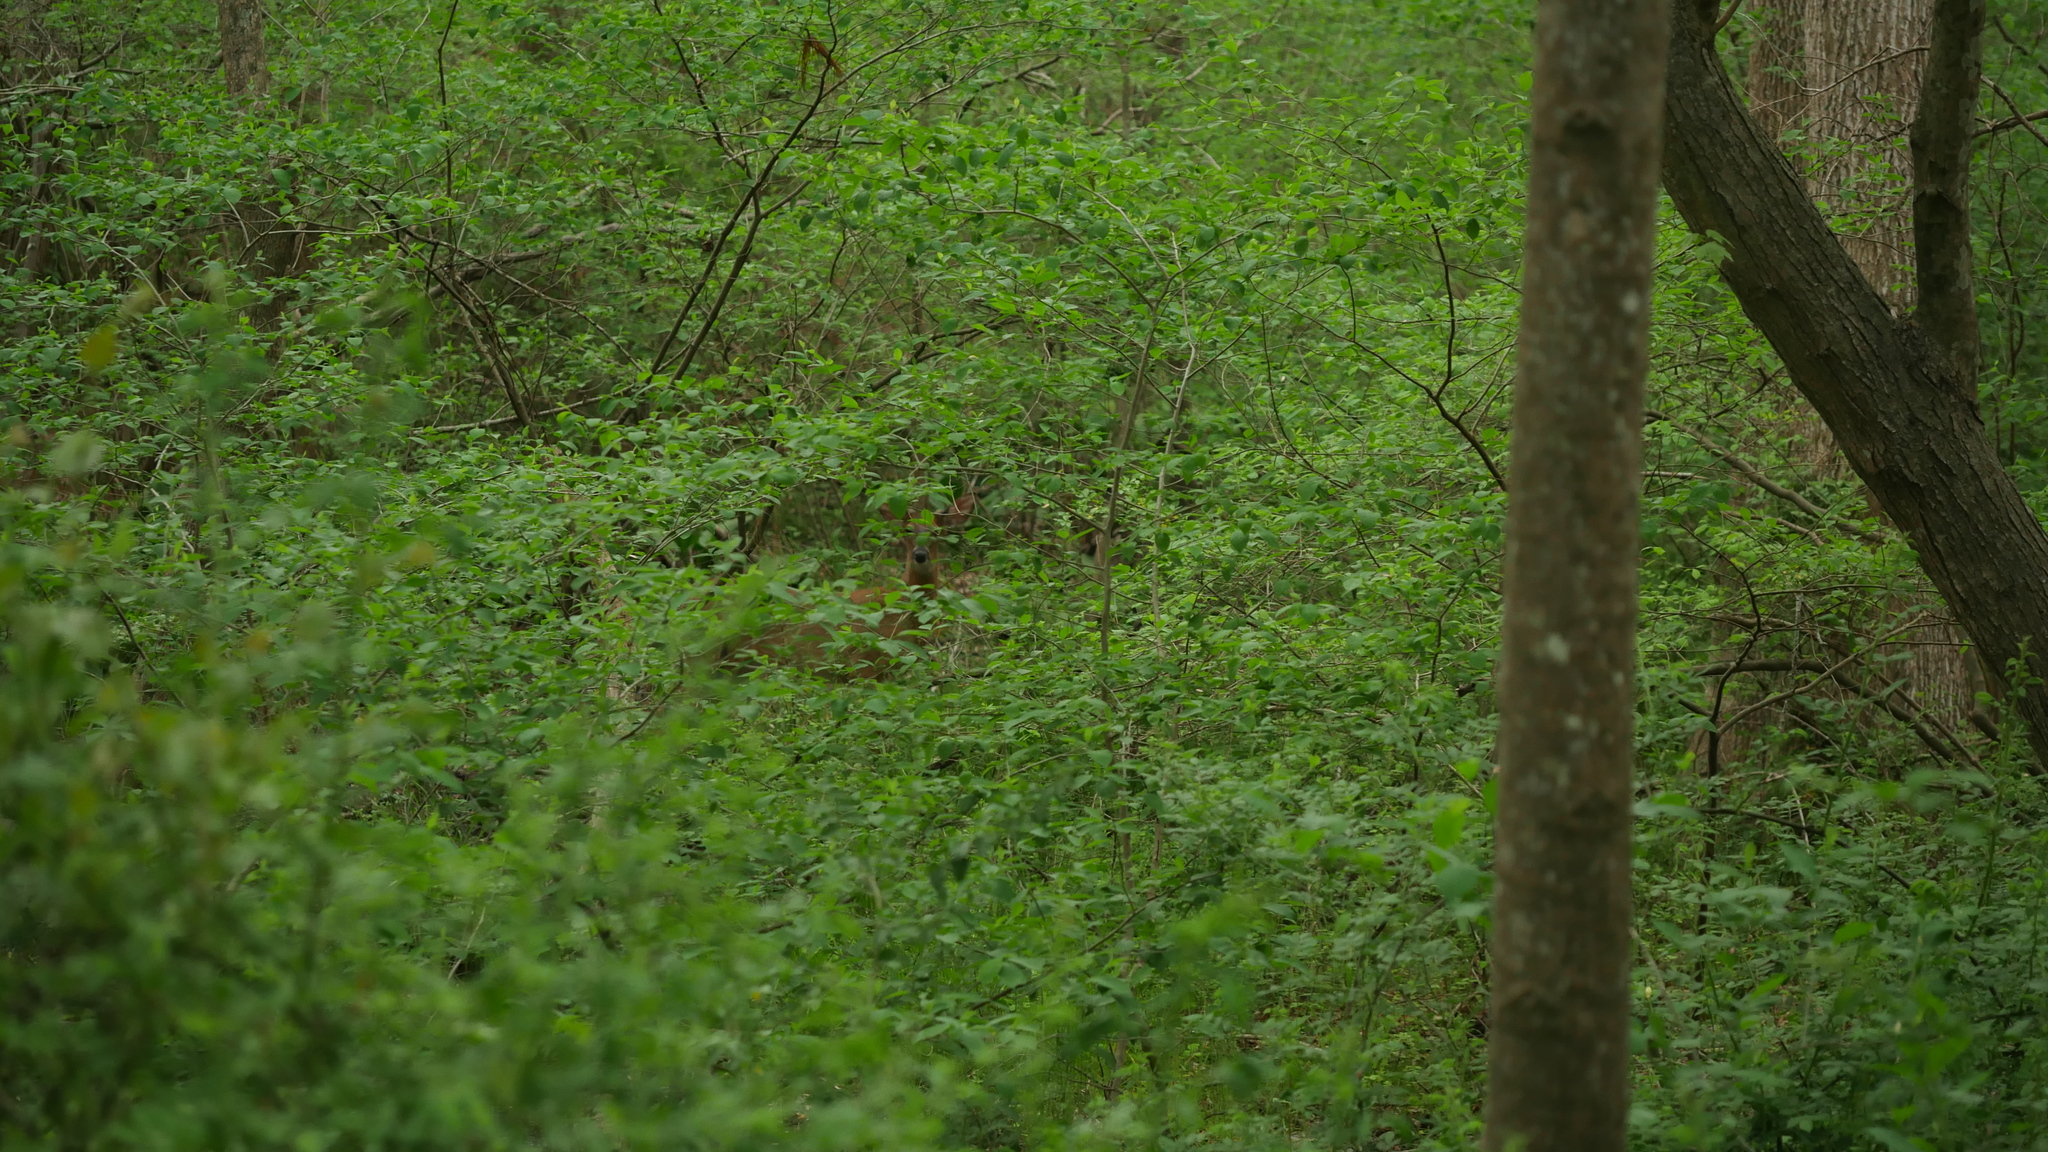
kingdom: Animalia
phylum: Chordata
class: Mammalia
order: Artiodactyla
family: Cervidae
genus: Odocoileus
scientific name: Odocoileus virginianus
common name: White-tailed deer
